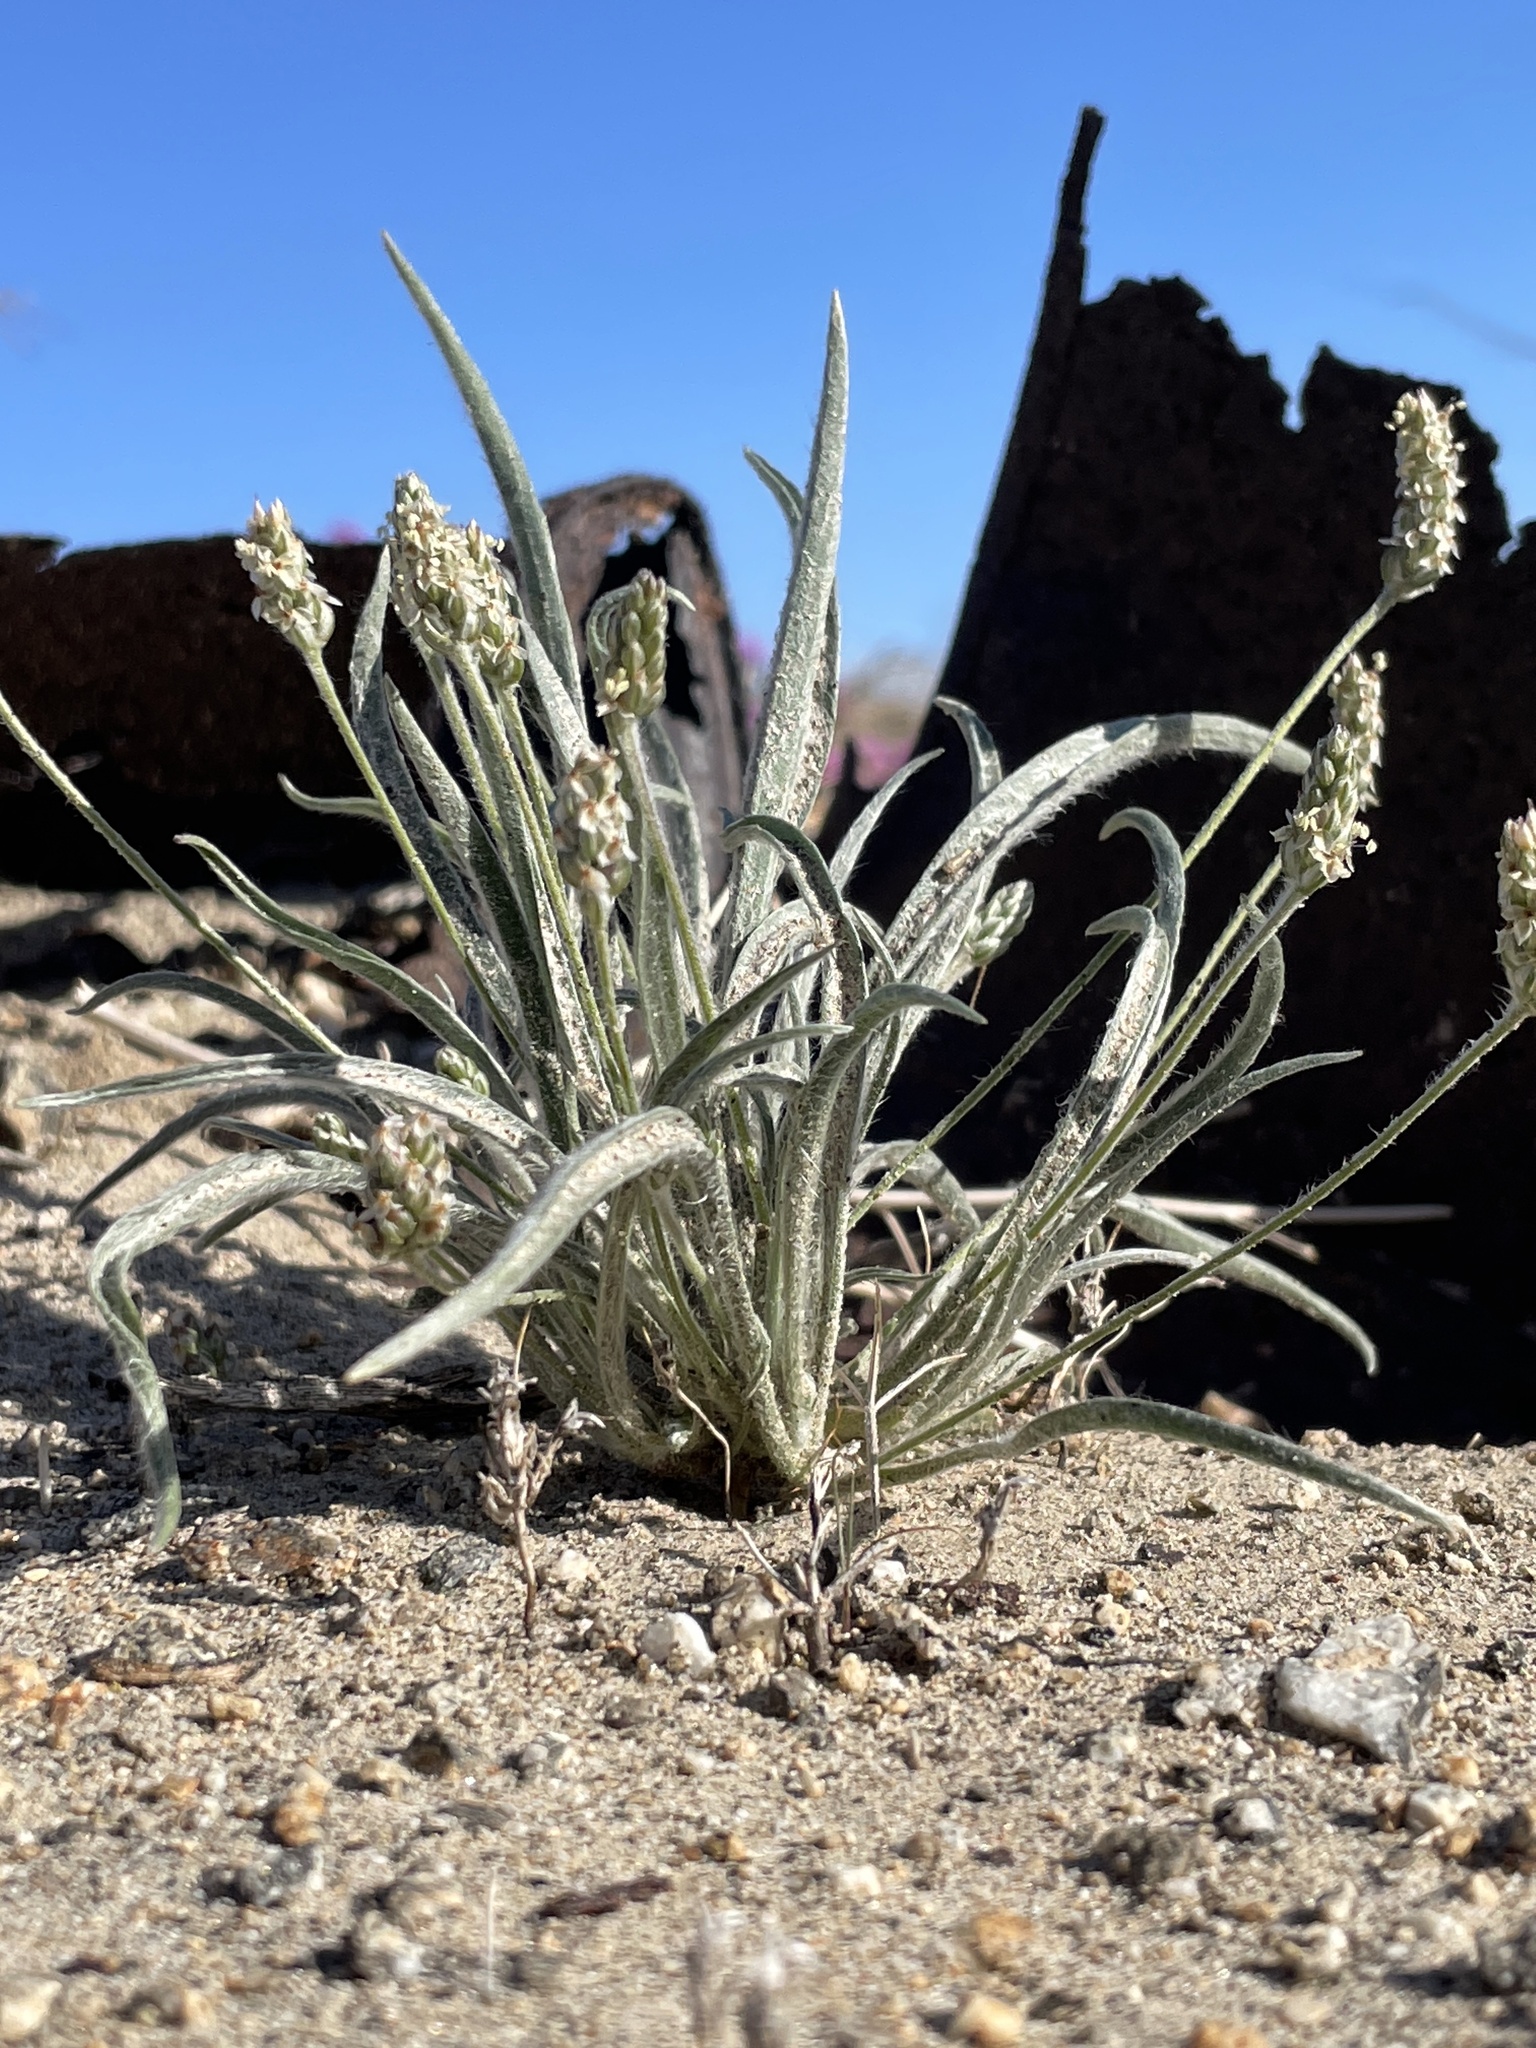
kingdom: Plantae
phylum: Tracheophyta
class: Magnoliopsida
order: Lamiales
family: Plantaginaceae
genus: Plantago
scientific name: Plantago ovata
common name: Blond plantain
